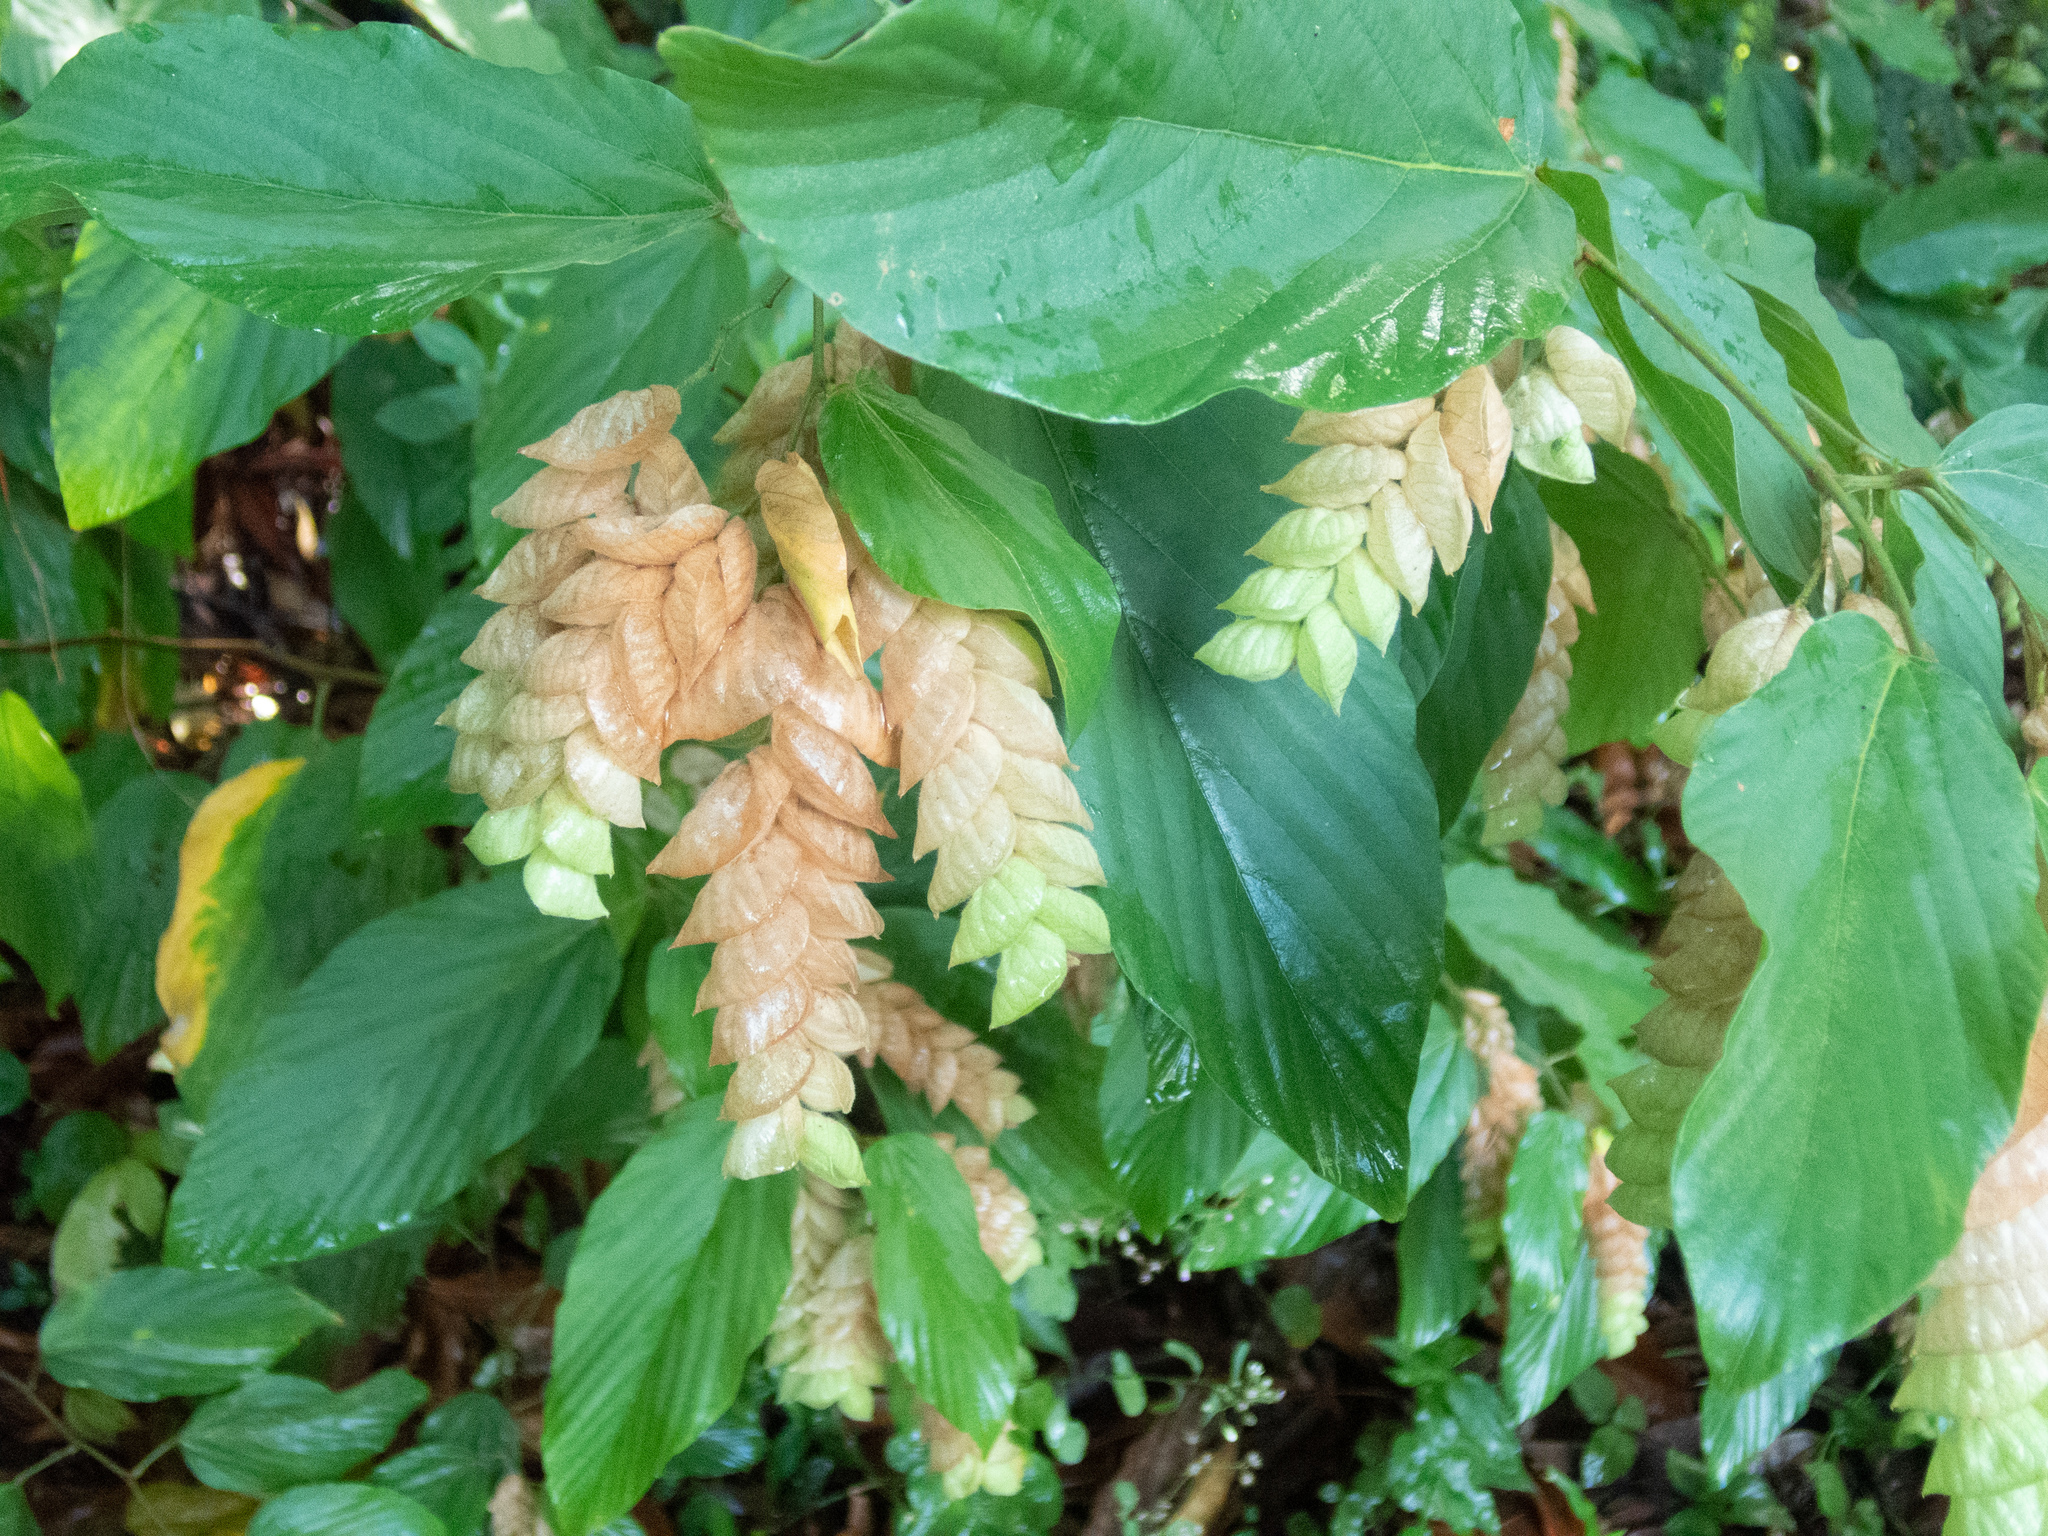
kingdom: Plantae
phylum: Tracheophyta
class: Magnoliopsida
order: Fabales
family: Fabaceae
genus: Flemingia
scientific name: Flemingia strobilifera
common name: Wild hops
